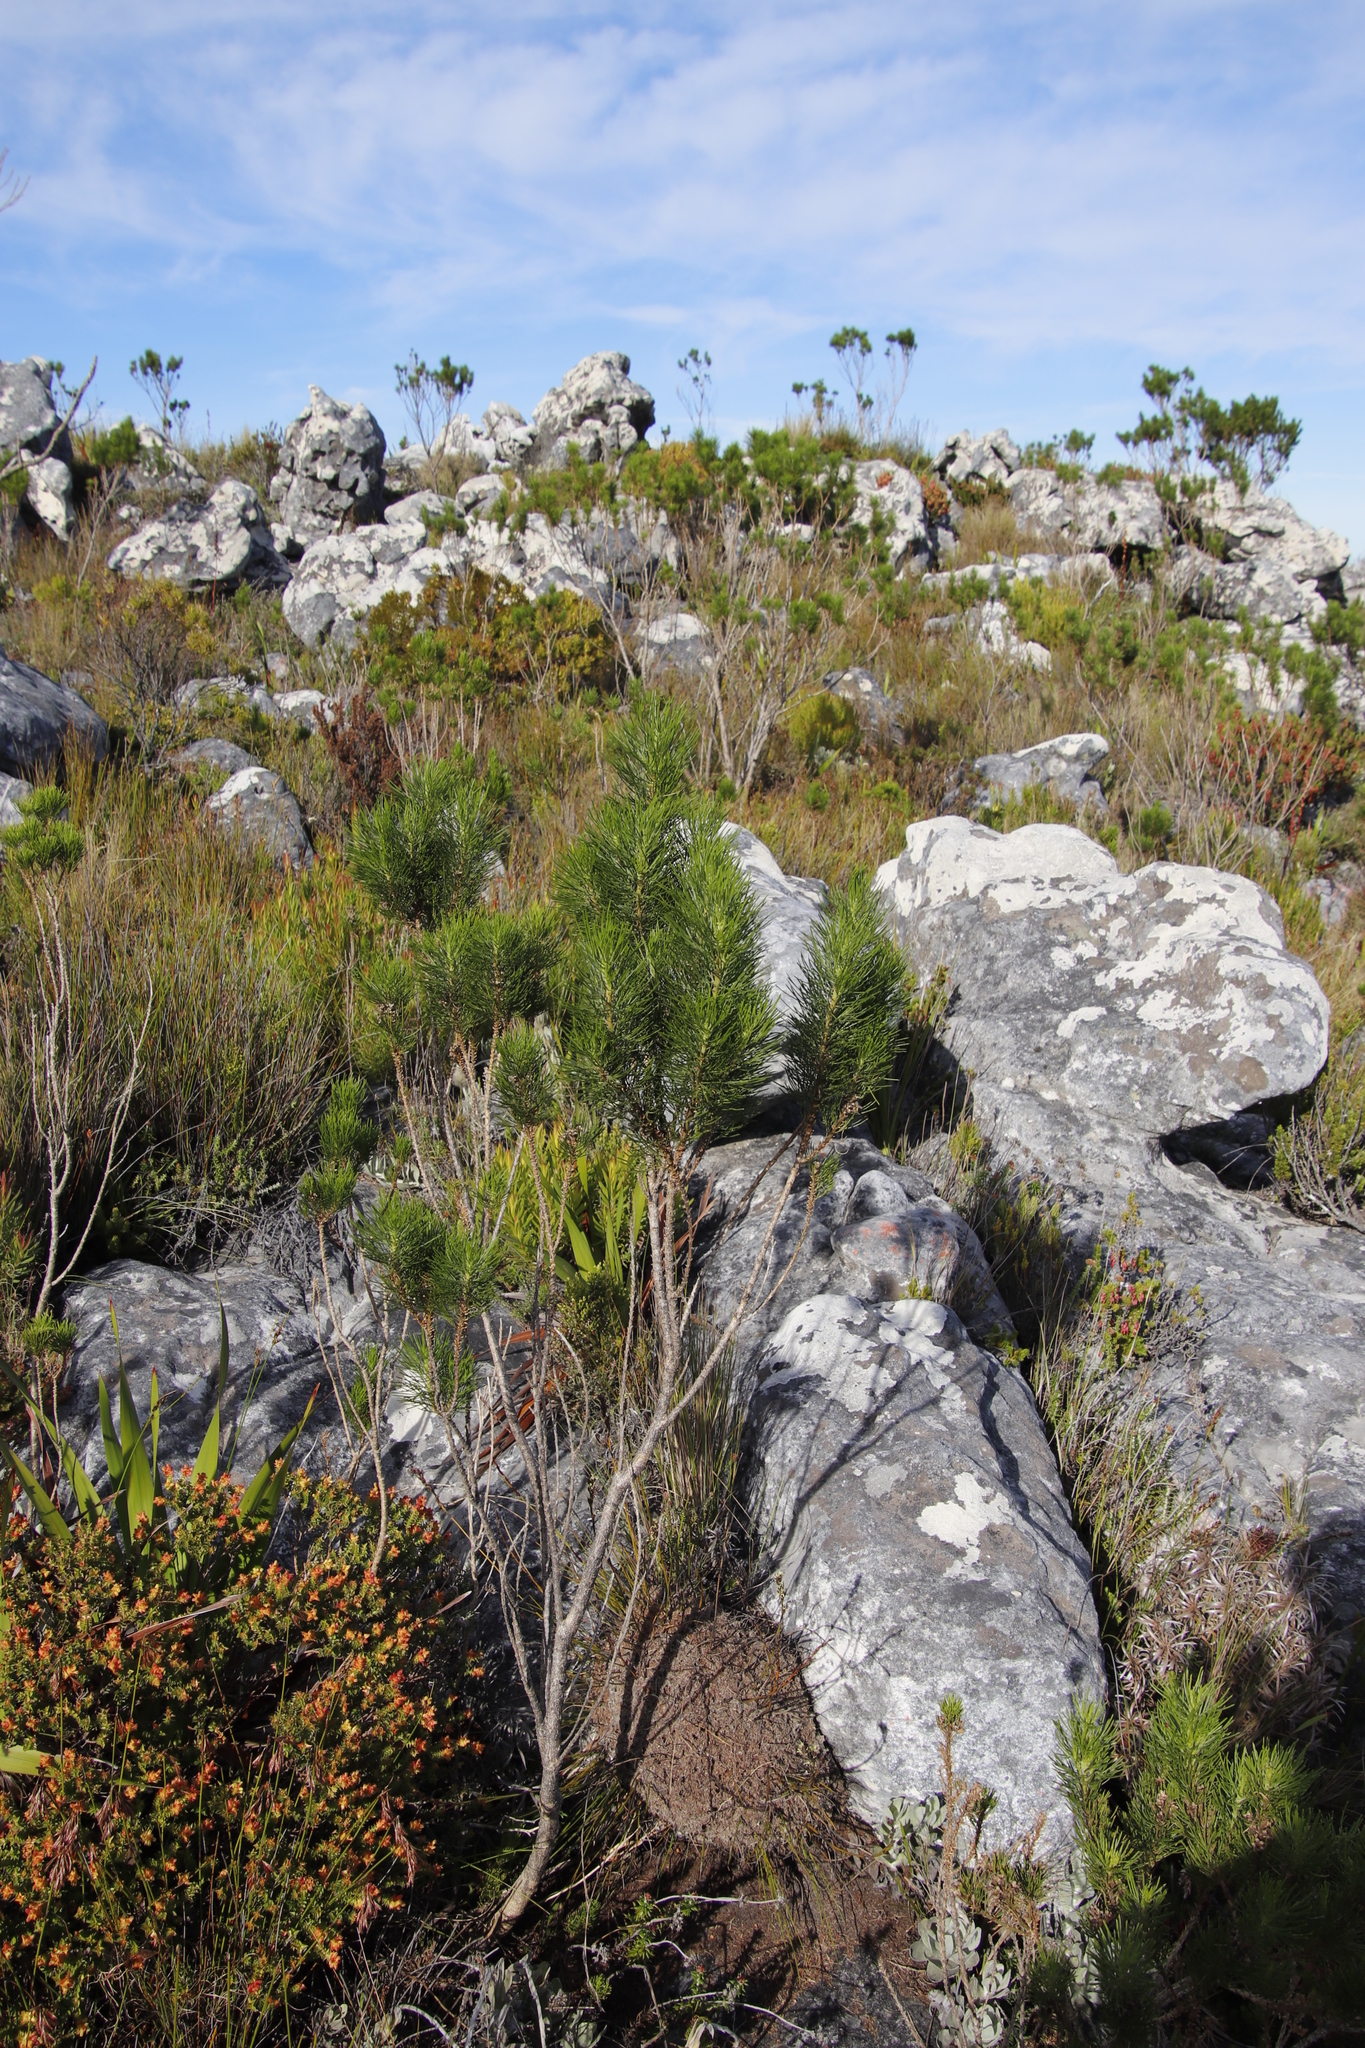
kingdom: Plantae
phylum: Tracheophyta
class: Magnoliopsida
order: Fabales
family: Fabaceae
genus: Psoralea
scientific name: Psoralea pinnata
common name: African scurfpea
